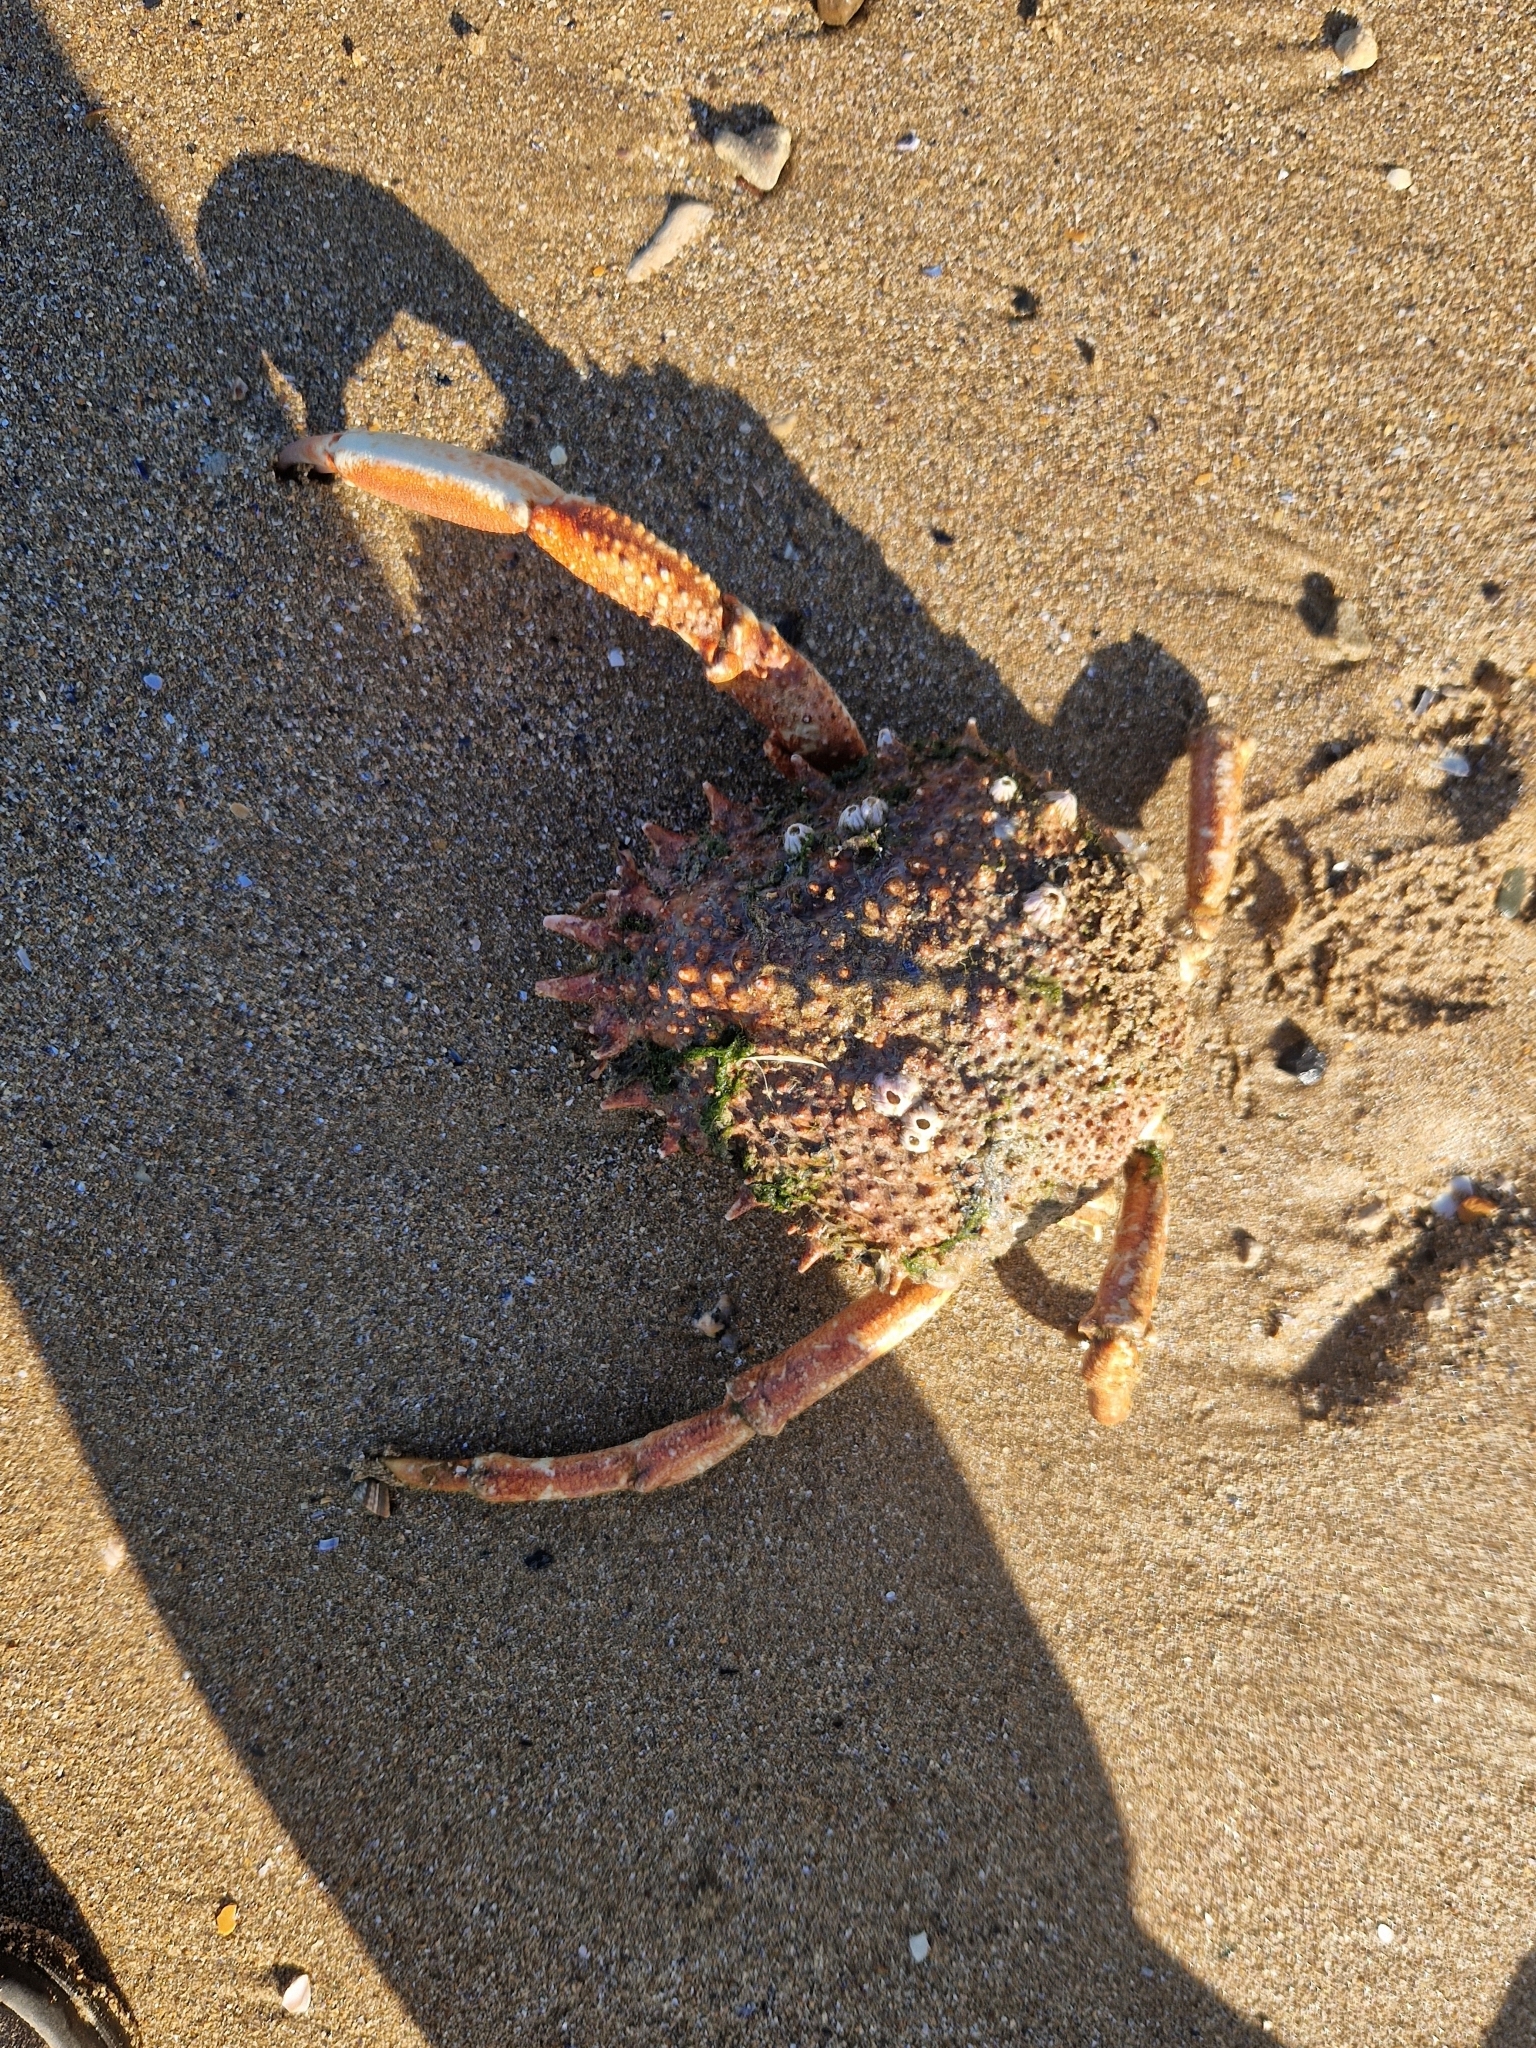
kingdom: Animalia
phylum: Arthropoda
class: Malacostraca
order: Decapoda
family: Majidae
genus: Maja
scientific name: Maja brachydactyla
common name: Common spider crab
